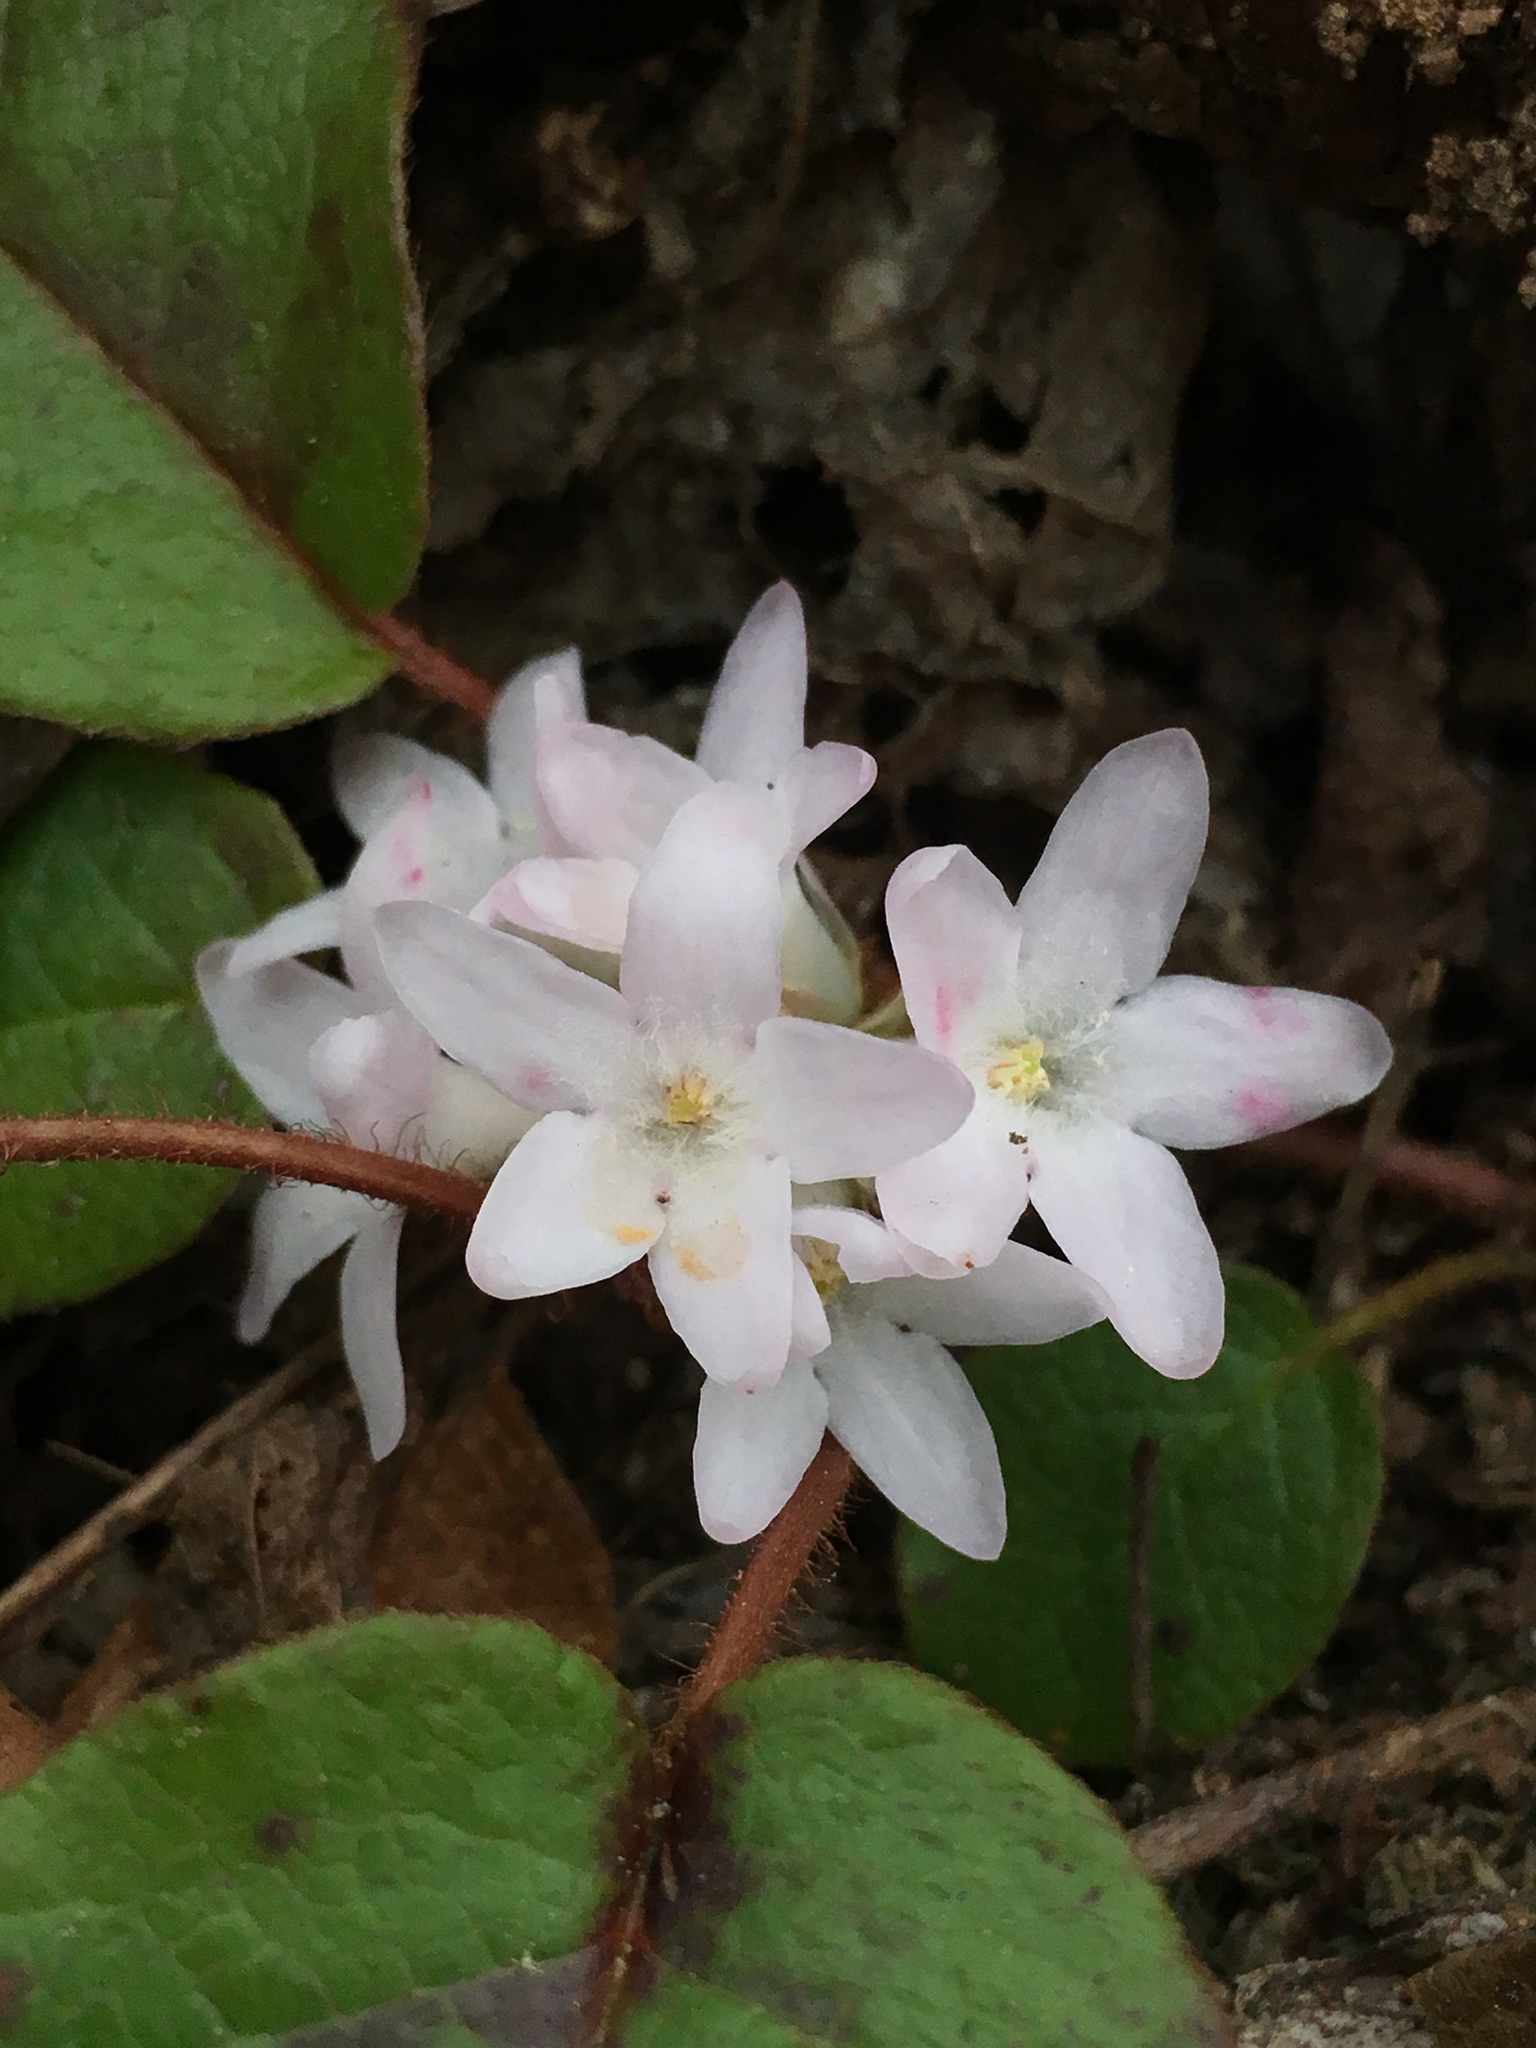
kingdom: Plantae
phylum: Tracheophyta
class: Magnoliopsida
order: Ericales
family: Ericaceae
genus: Epigaea
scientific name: Epigaea repens
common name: Gravelroot
